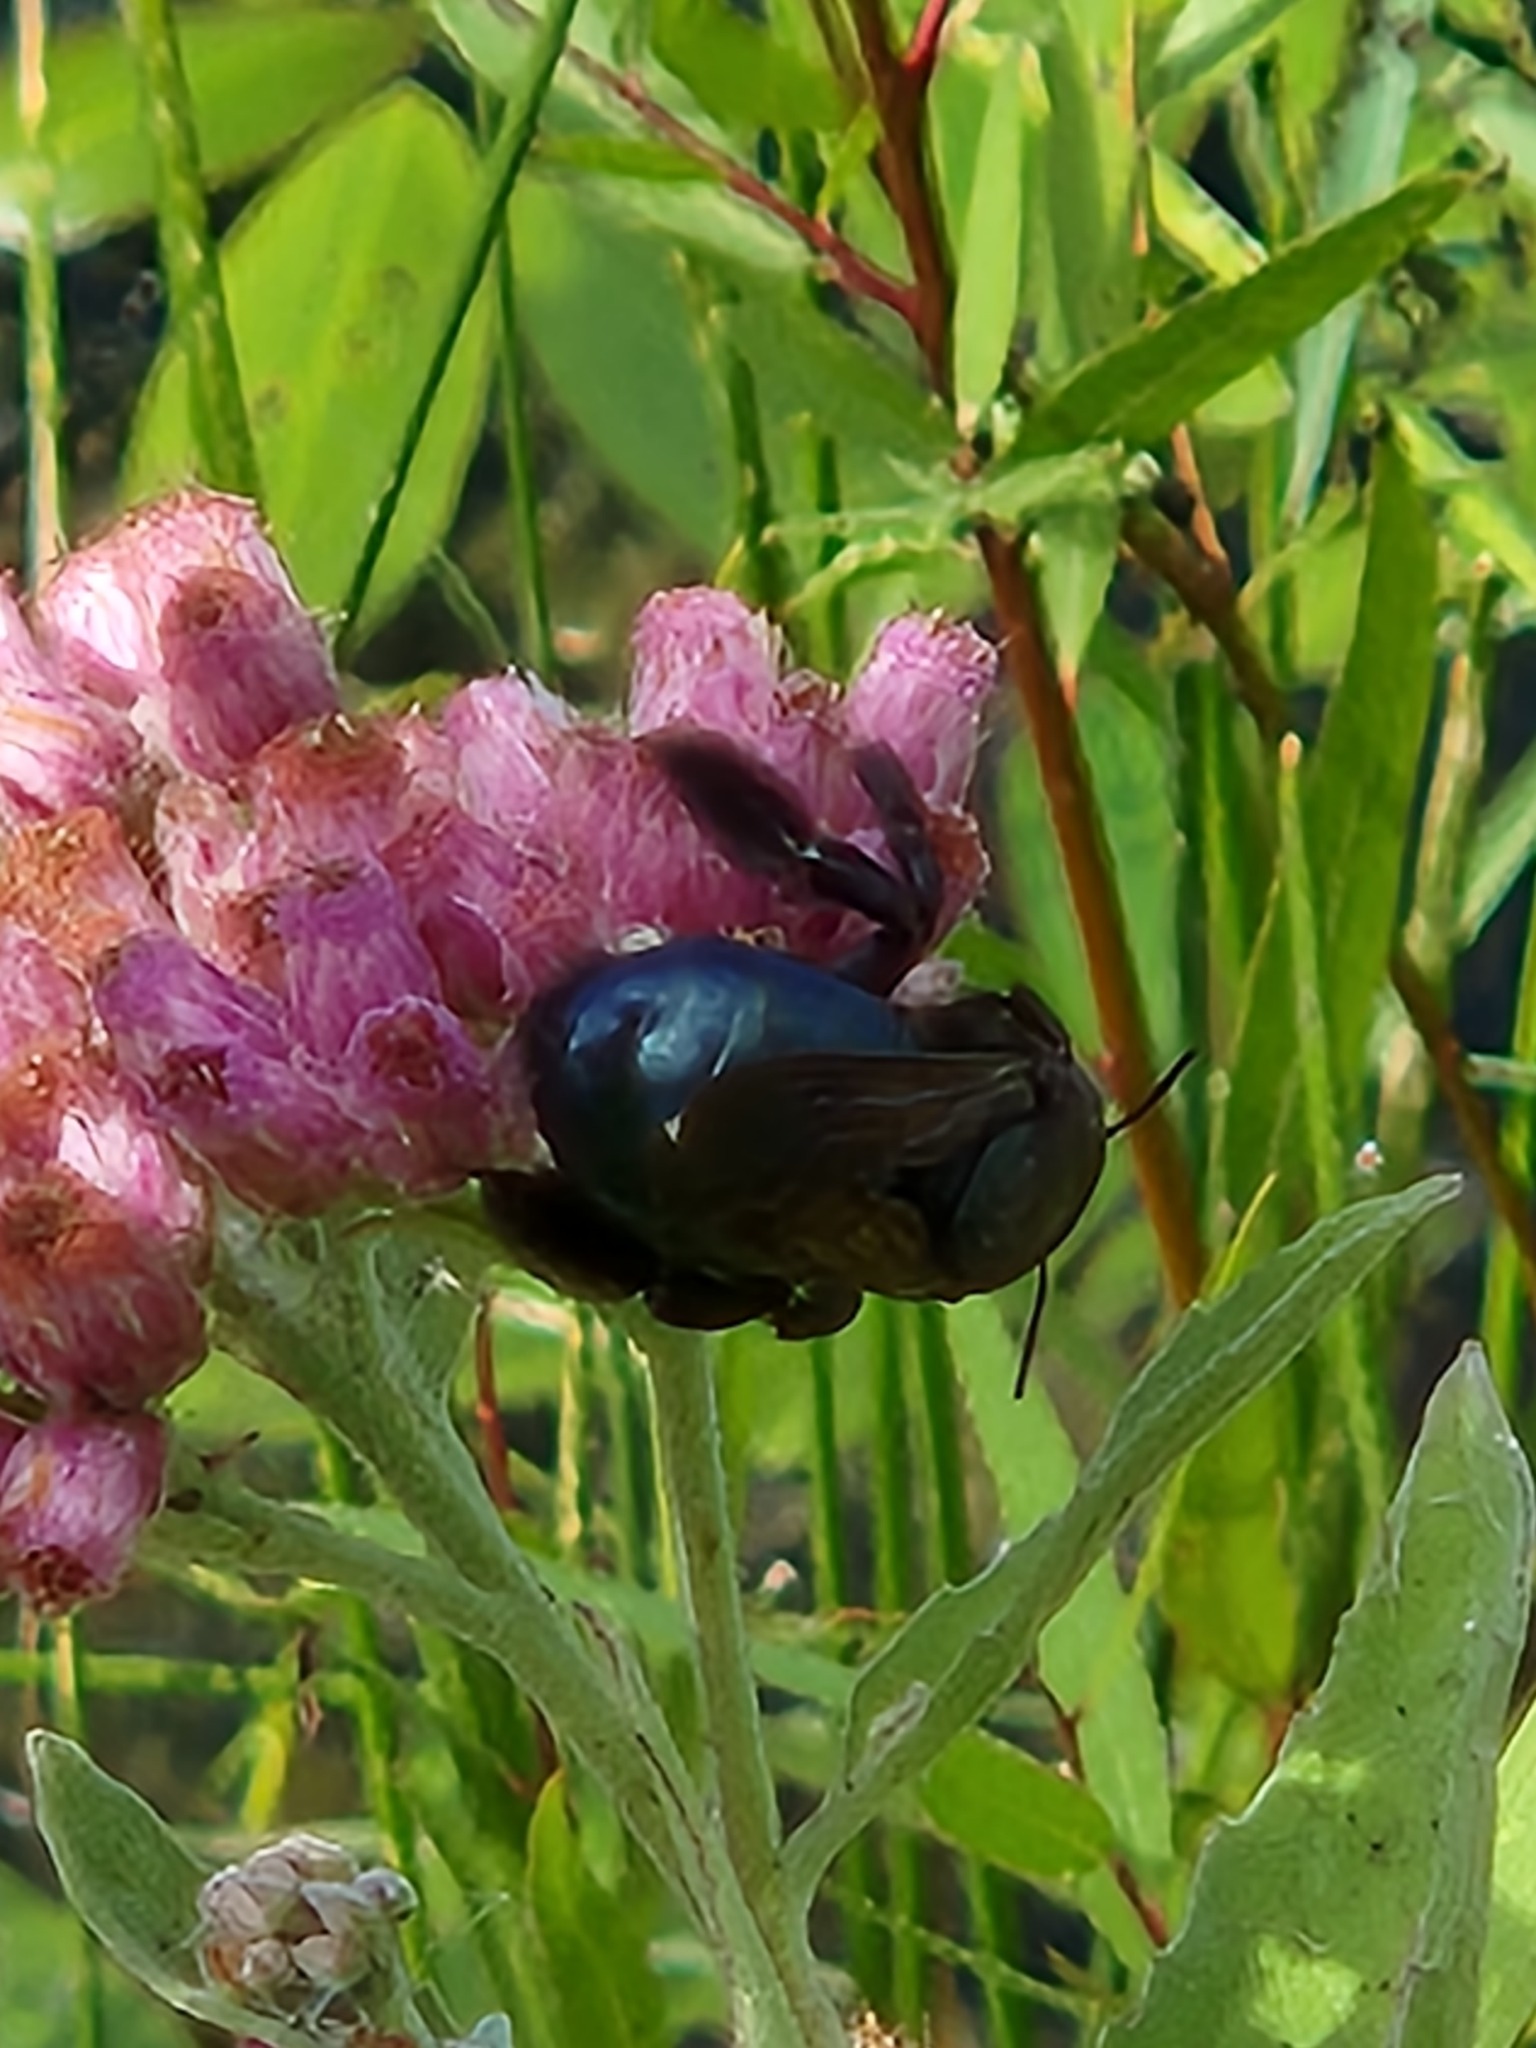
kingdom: Animalia
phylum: Arthropoda
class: Insecta
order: Hymenoptera
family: Apidae
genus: Xylocopa
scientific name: Xylocopa micans
